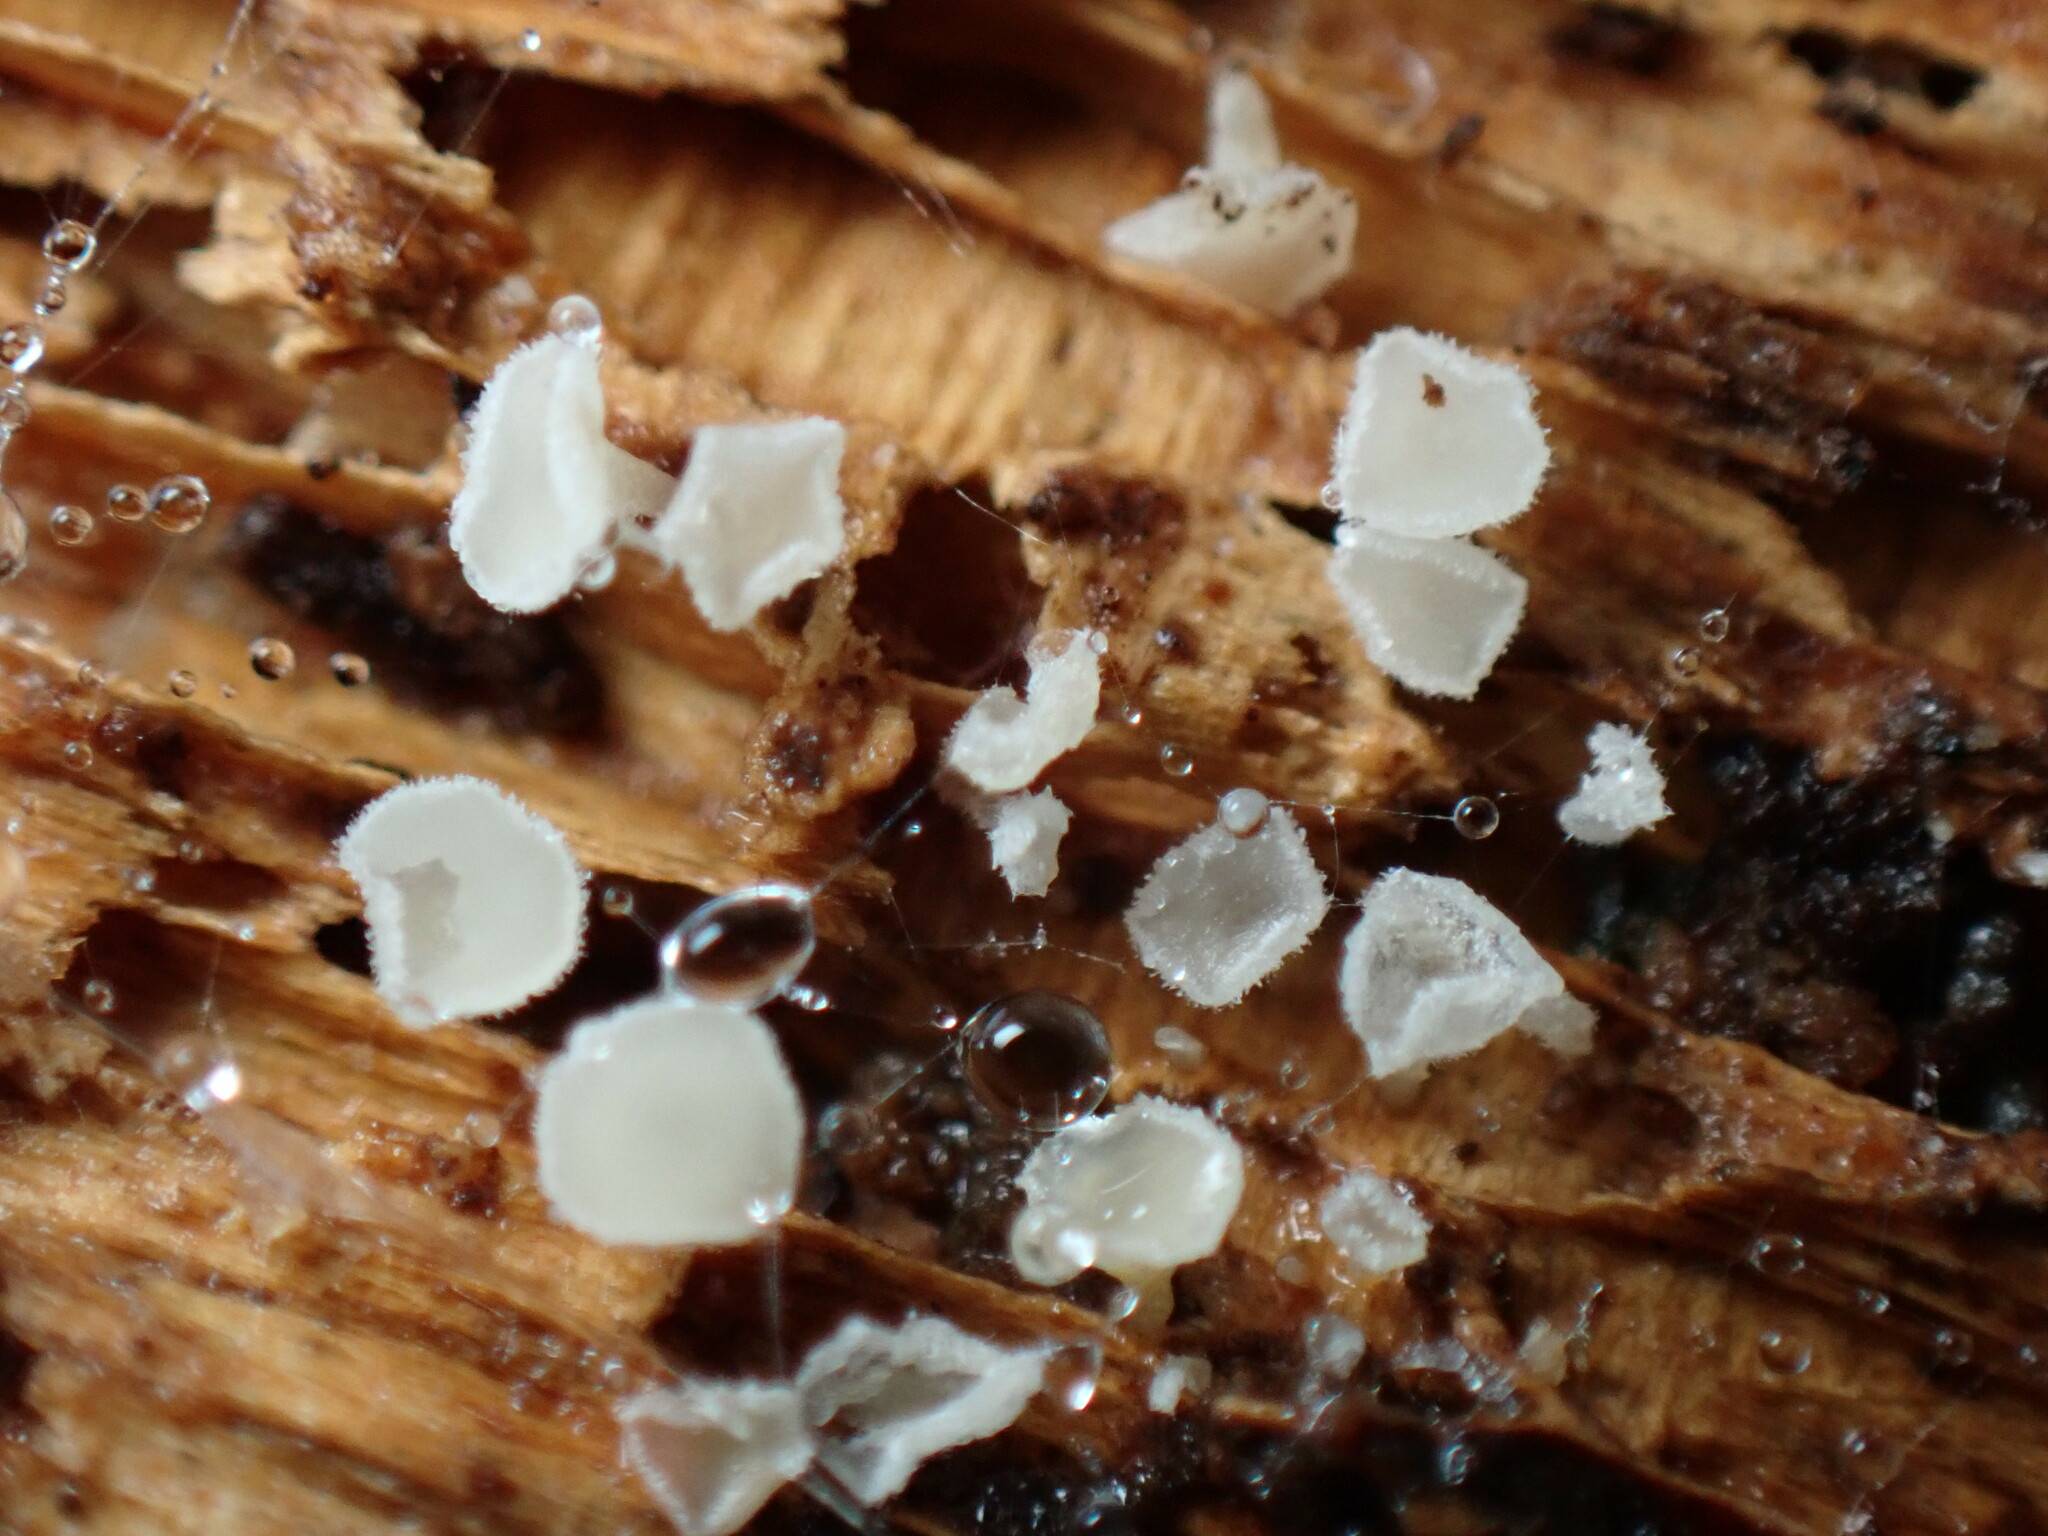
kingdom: Fungi
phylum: Ascomycota
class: Leotiomycetes
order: Helotiales
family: Lachnaceae
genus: Lachnum
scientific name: Lachnum virgineum
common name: Snowy disco
